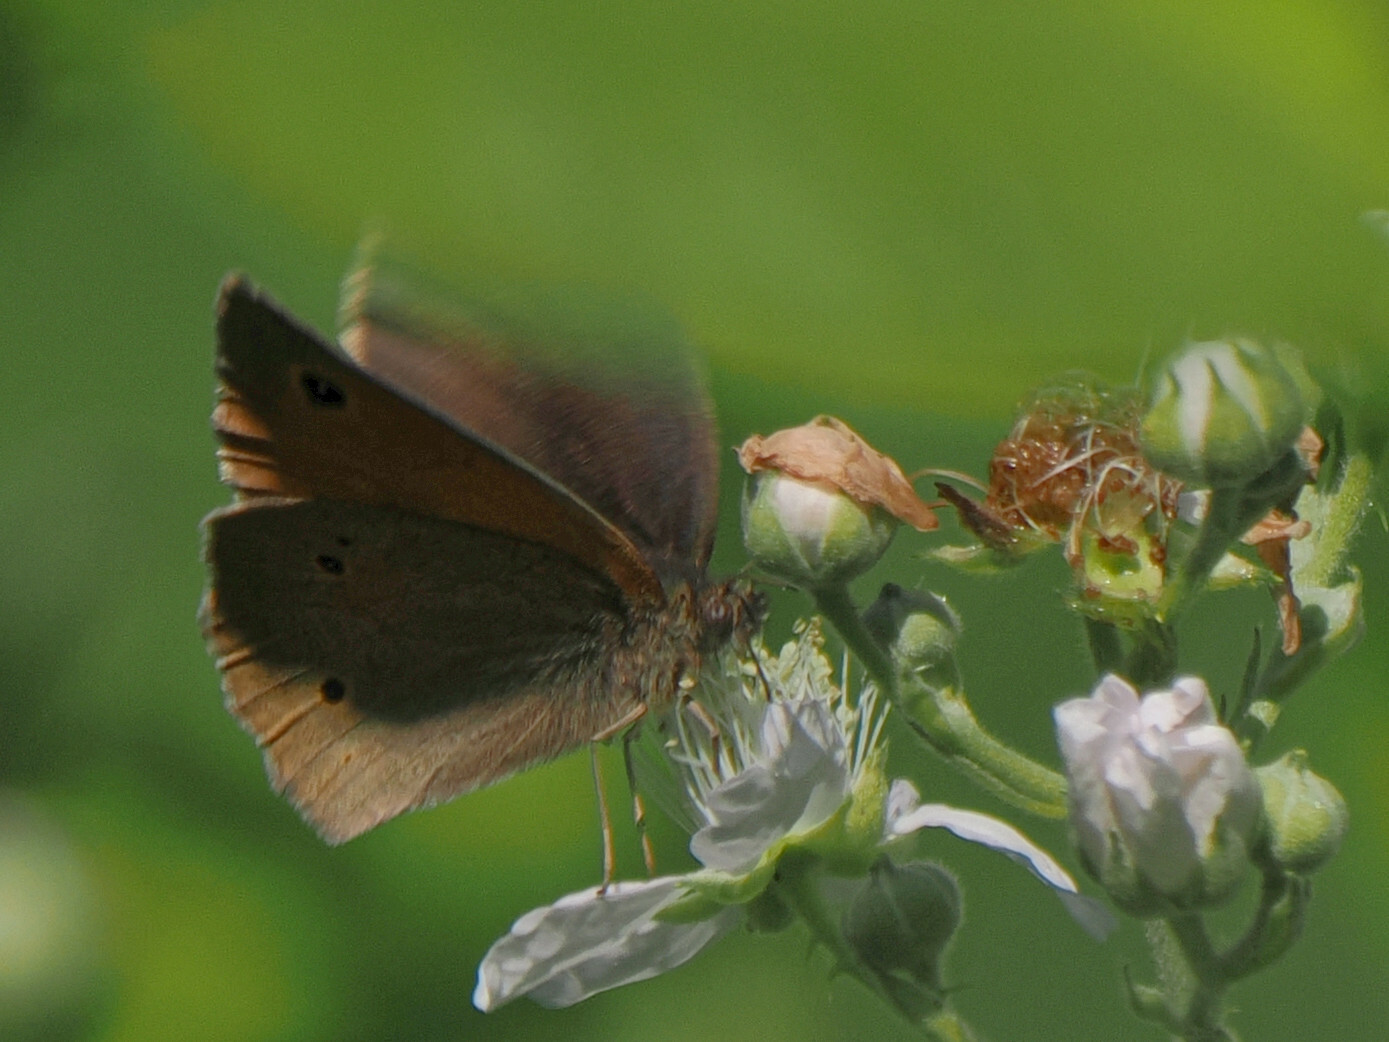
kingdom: Animalia
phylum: Arthropoda
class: Insecta
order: Lepidoptera
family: Nymphalidae
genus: Maniola
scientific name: Maniola jurtina
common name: Meadow brown
